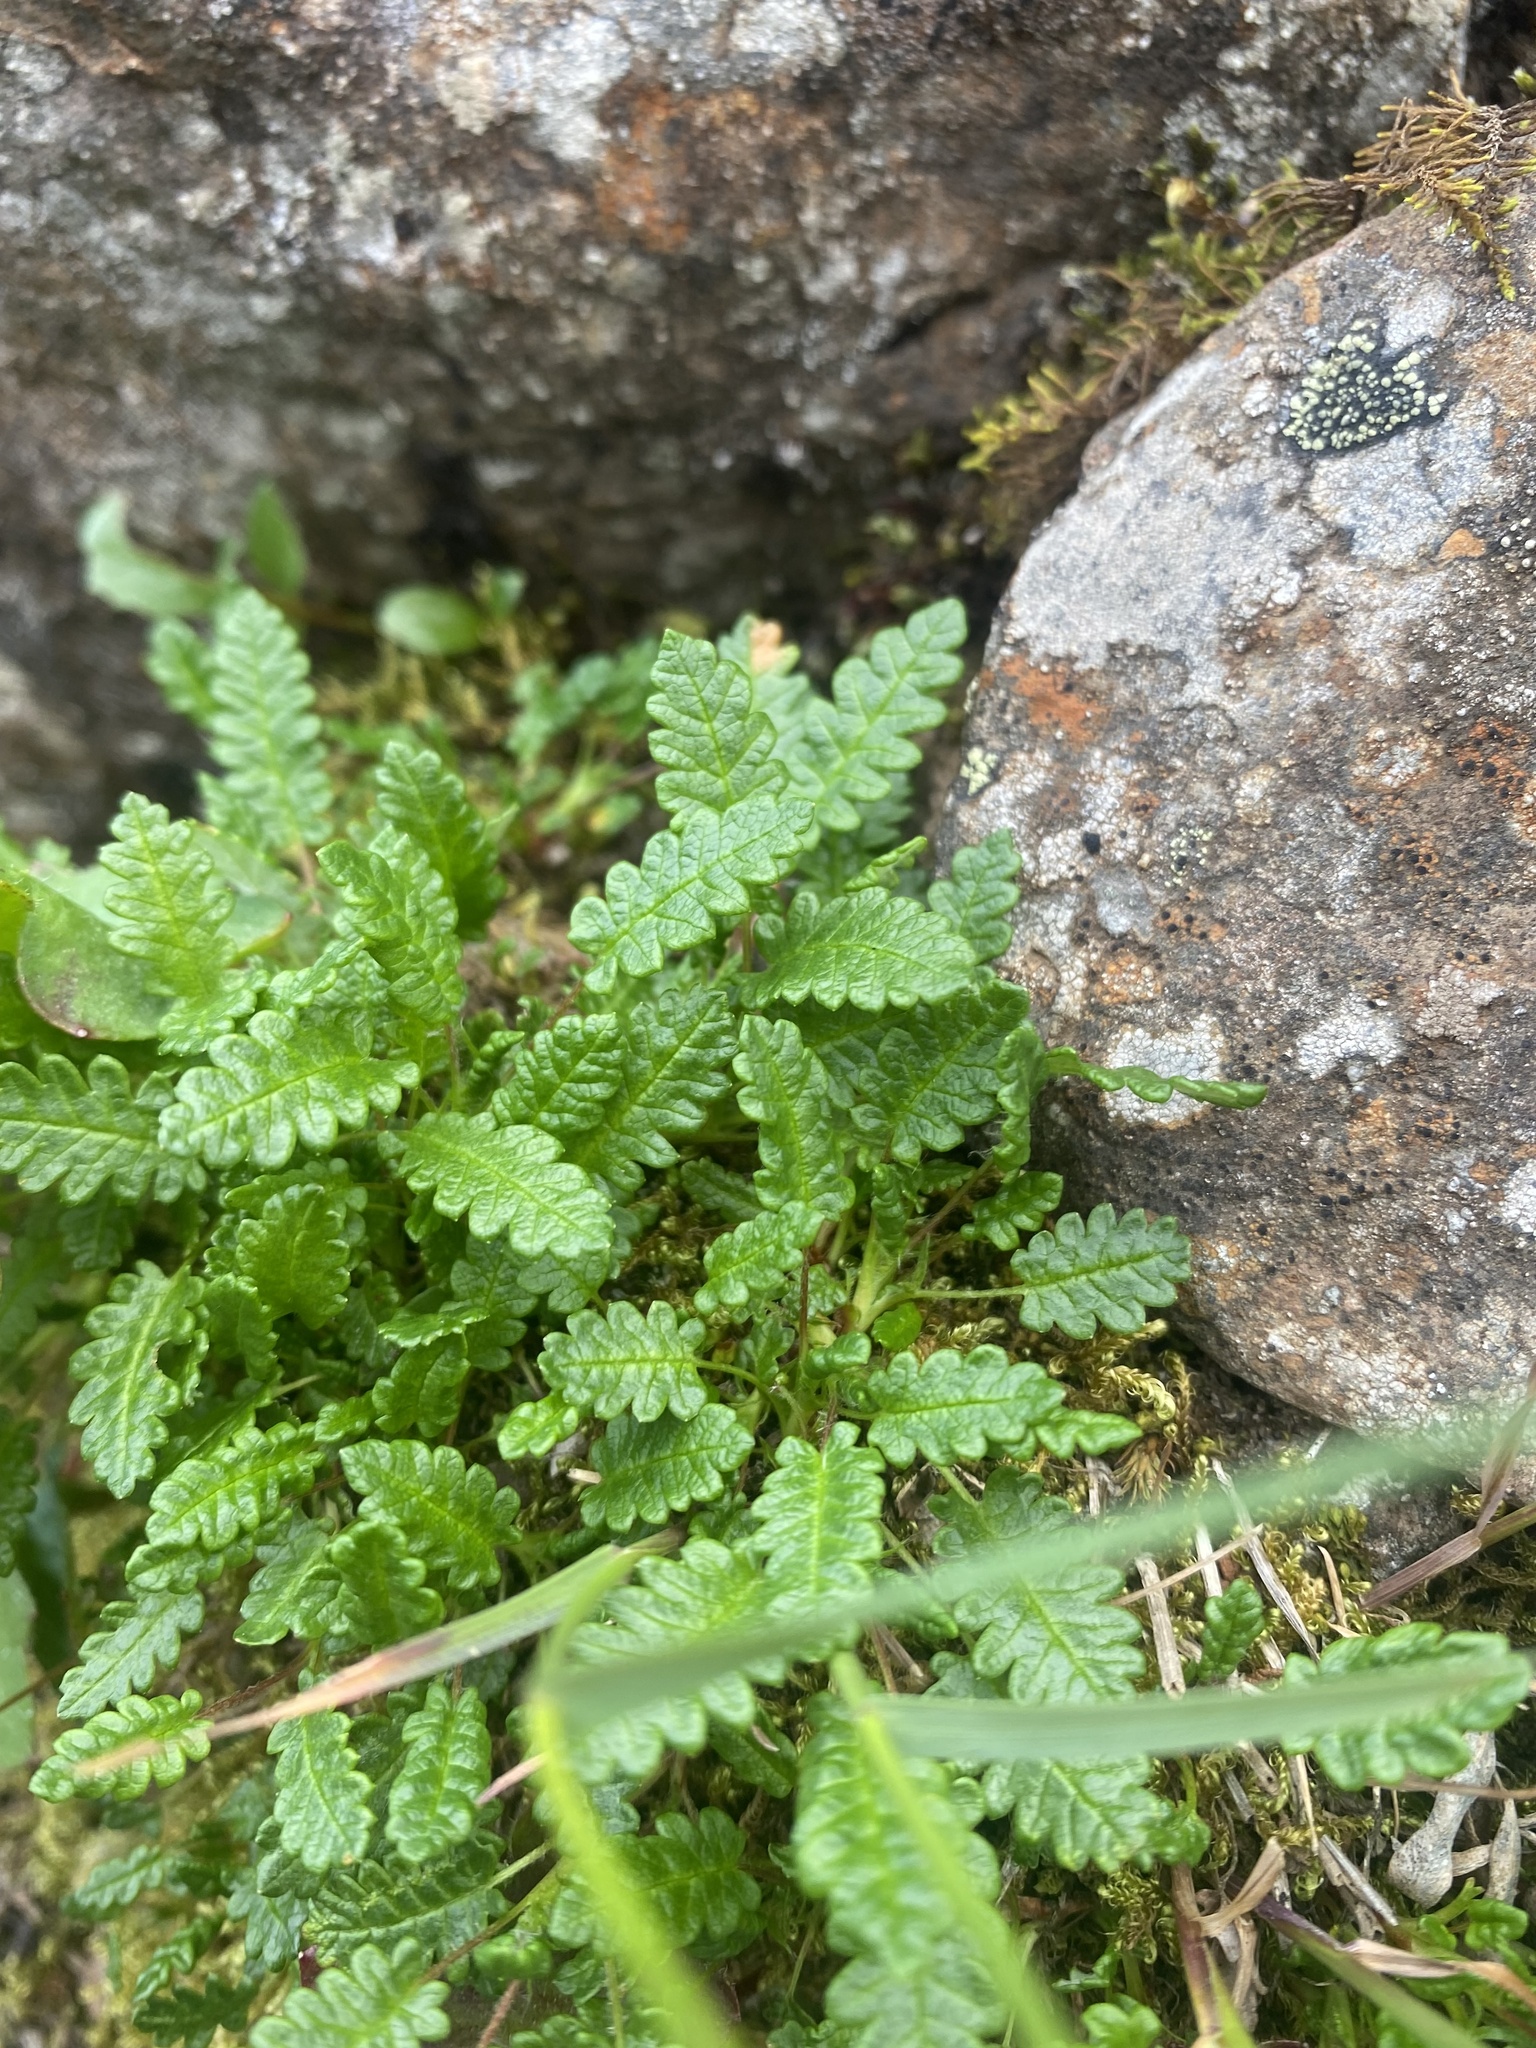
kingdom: Plantae
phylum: Tracheophyta
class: Magnoliopsida
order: Rosales
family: Rosaceae
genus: Dryas
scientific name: Dryas octopetala
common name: Eight-petal mountain-avens
